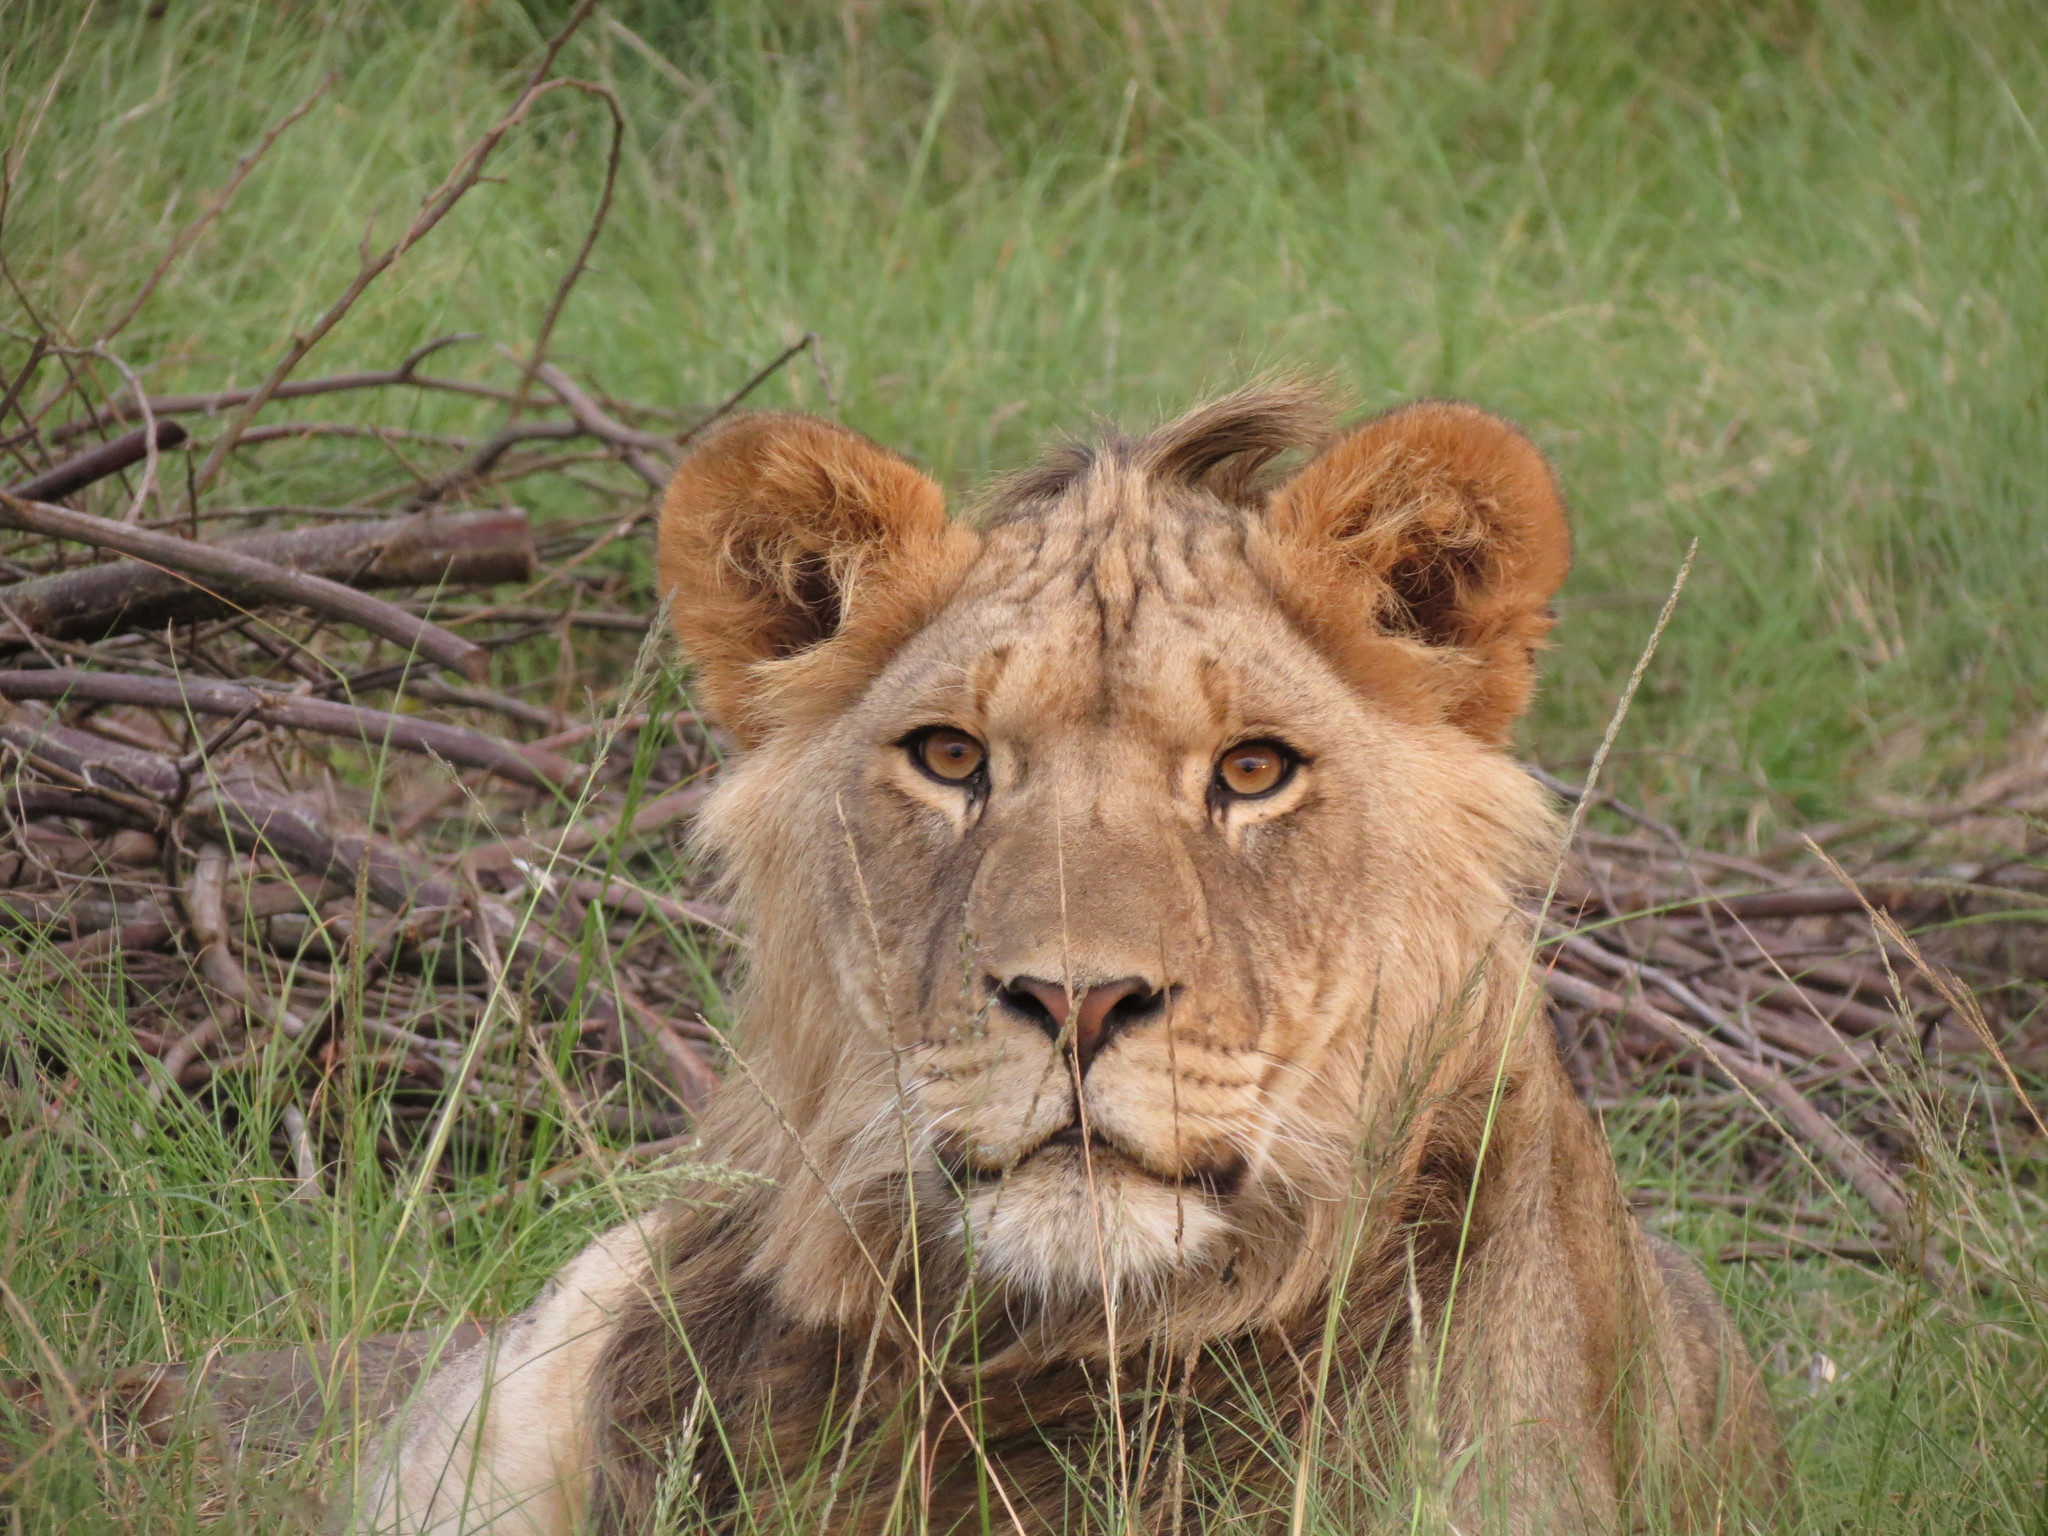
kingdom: Animalia
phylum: Chordata
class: Mammalia
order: Carnivora
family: Felidae
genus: Panthera
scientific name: Panthera leo
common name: Lion
